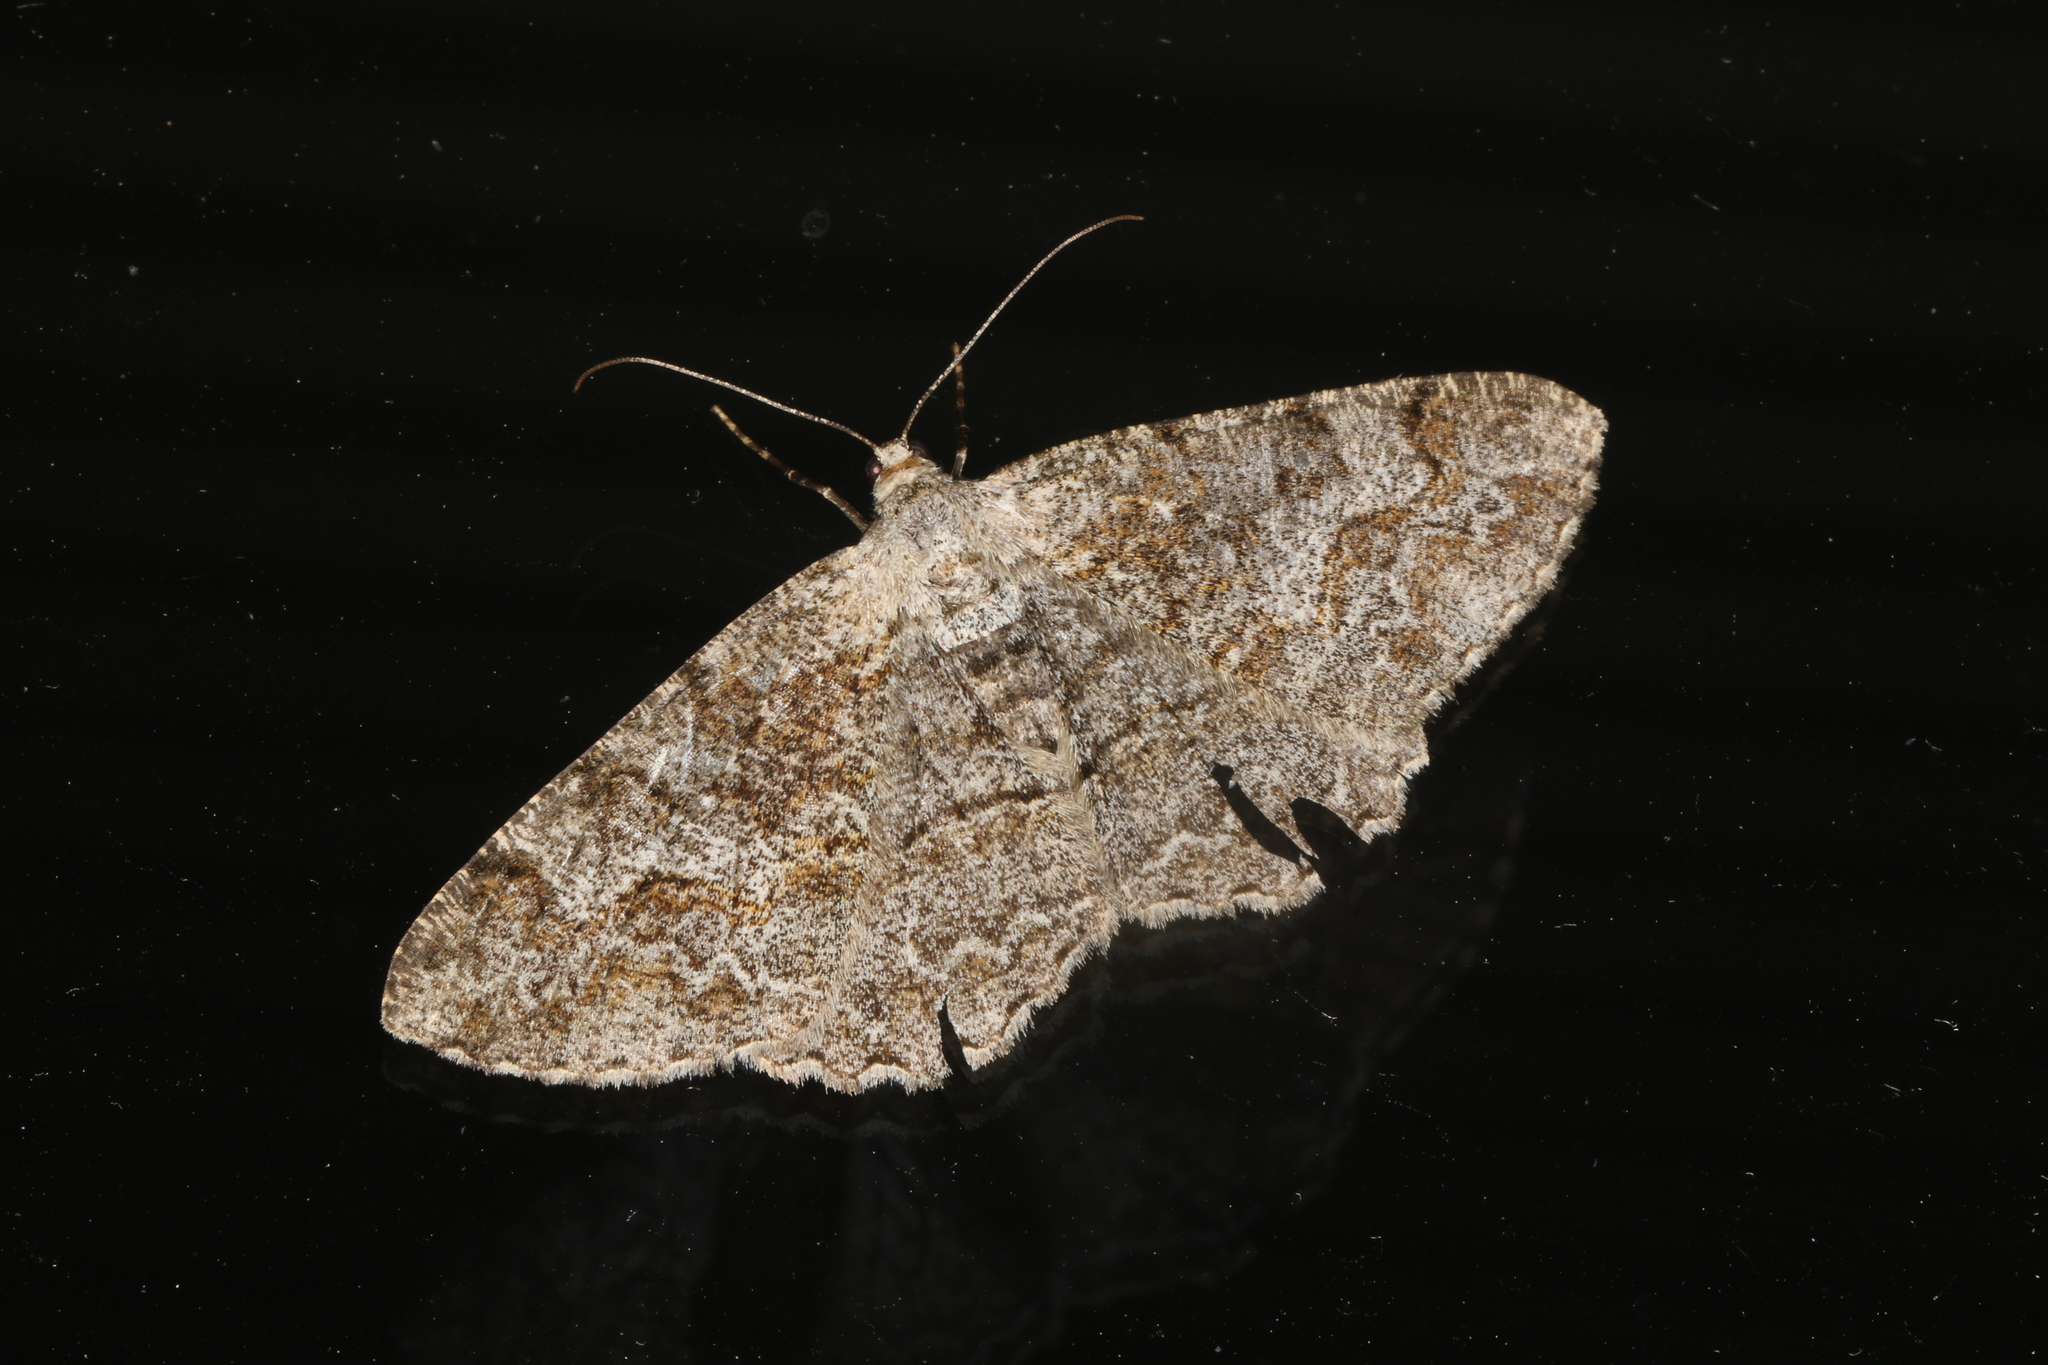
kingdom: Animalia
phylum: Arthropoda
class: Insecta
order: Lepidoptera
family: Geometridae
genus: Alcis
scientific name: Alcis repandata
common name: Mottled beauty
